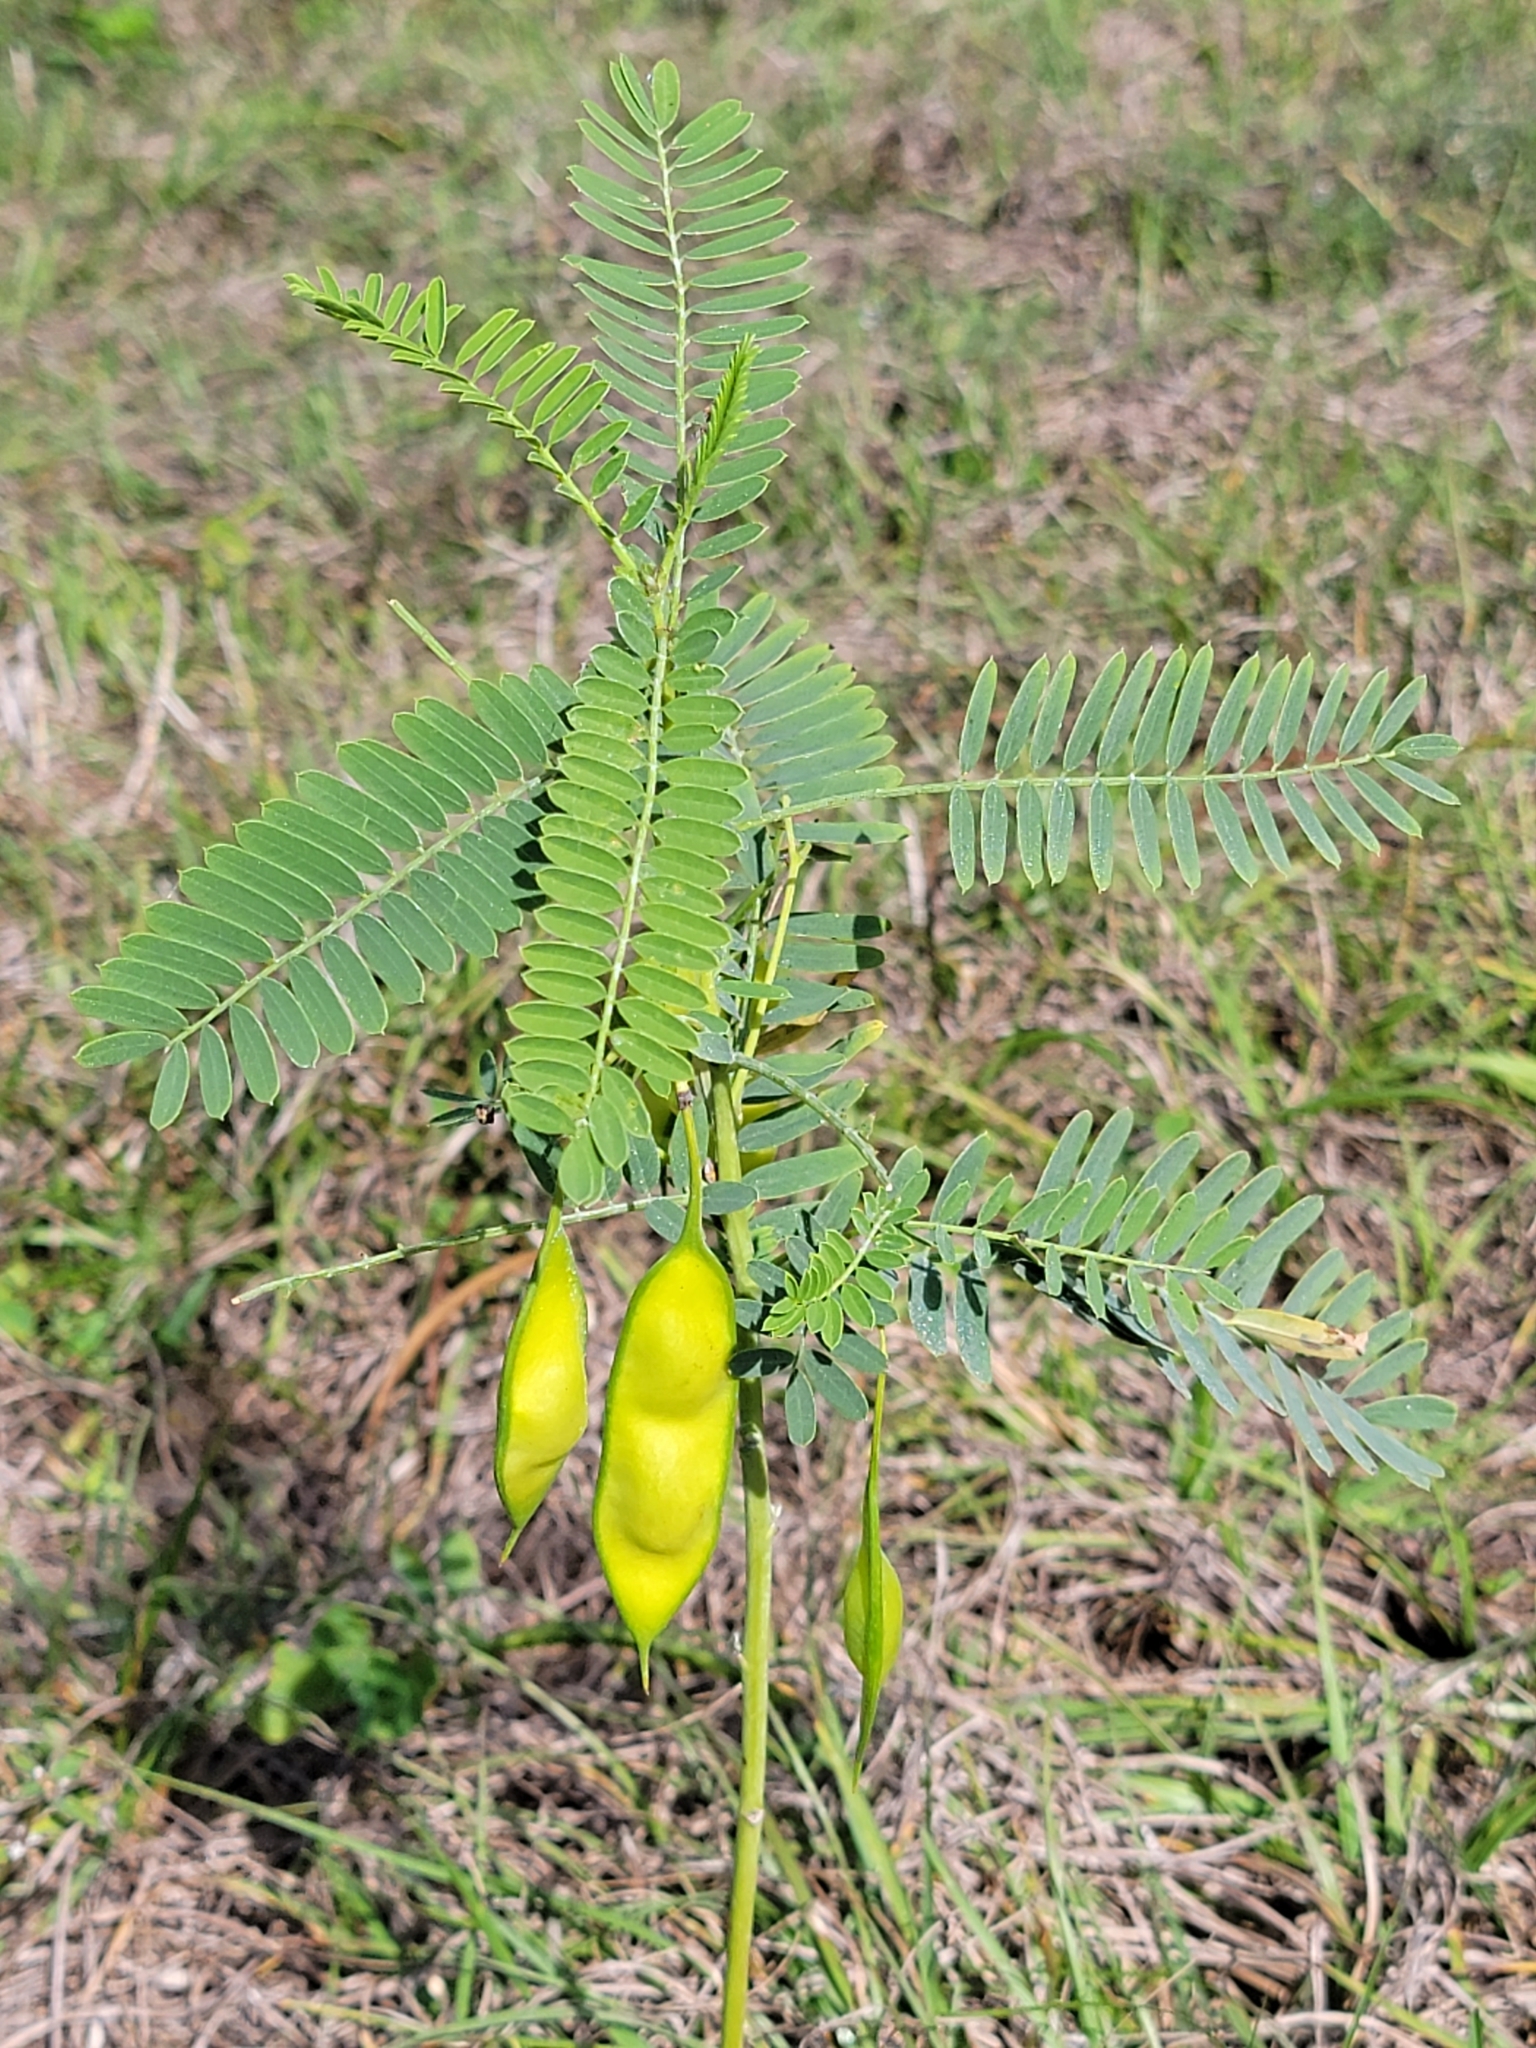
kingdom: Plantae
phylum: Tracheophyta
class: Magnoliopsida
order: Fabales
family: Fabaceae
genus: Sesbania
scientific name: Sesbania vesicaria
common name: Bagpod
